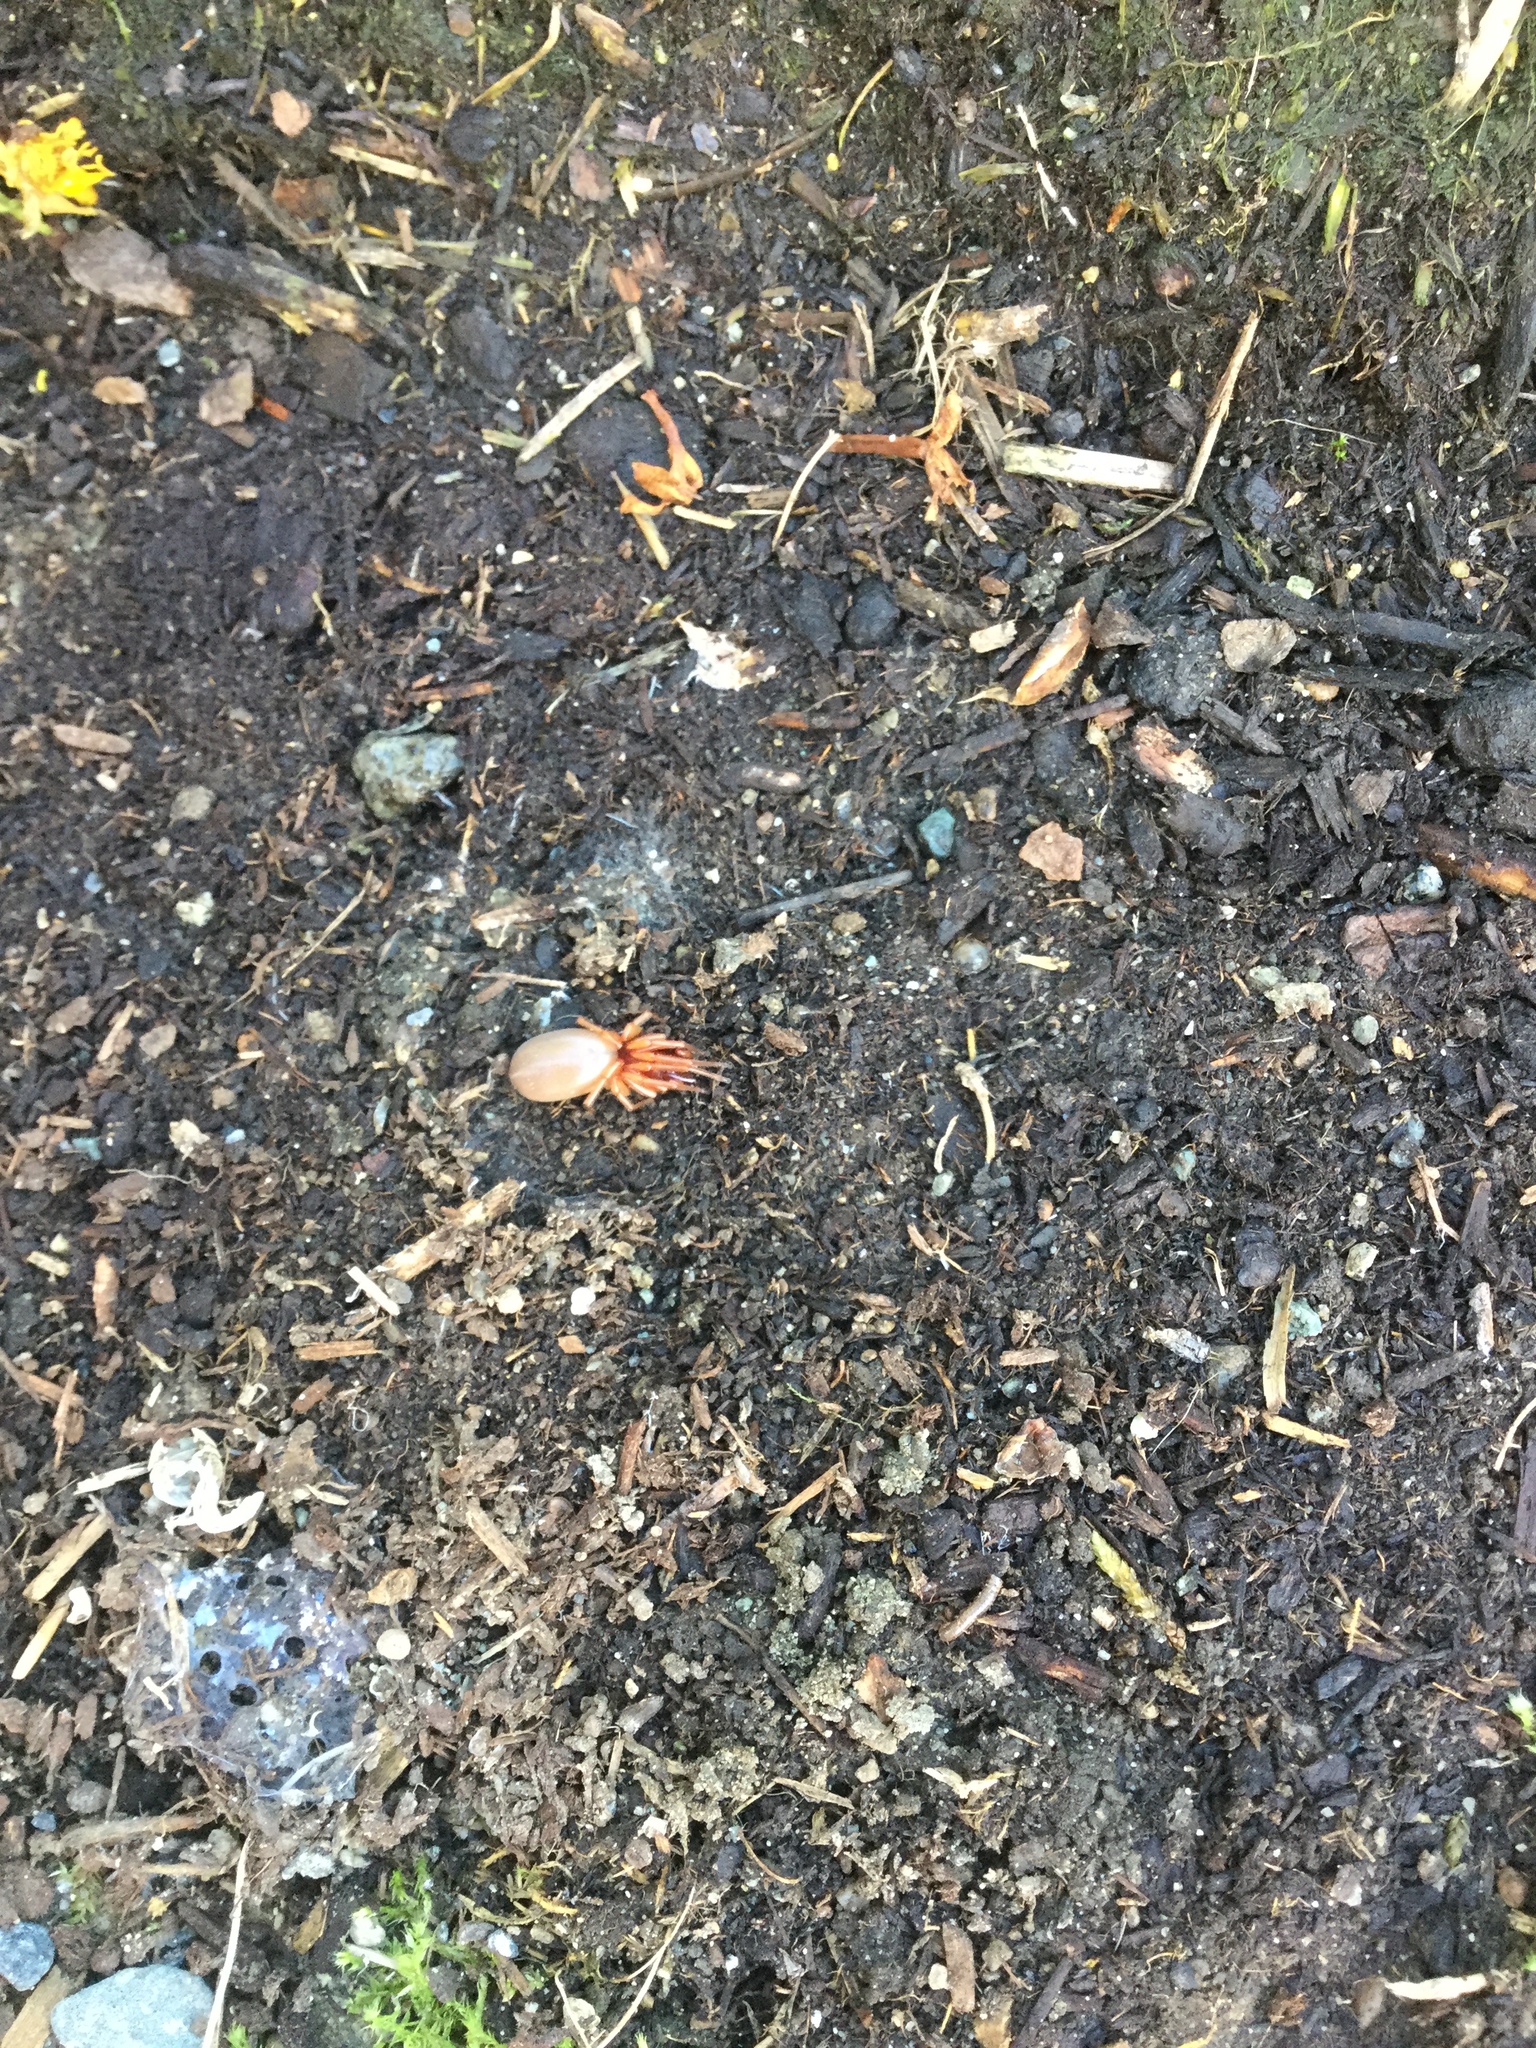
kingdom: Animalia
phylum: Arthropoda
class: Arachnida
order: Araneae
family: Dysderidae
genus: Dysdera
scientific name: Dysdera crocata
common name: Woodlouse spider
